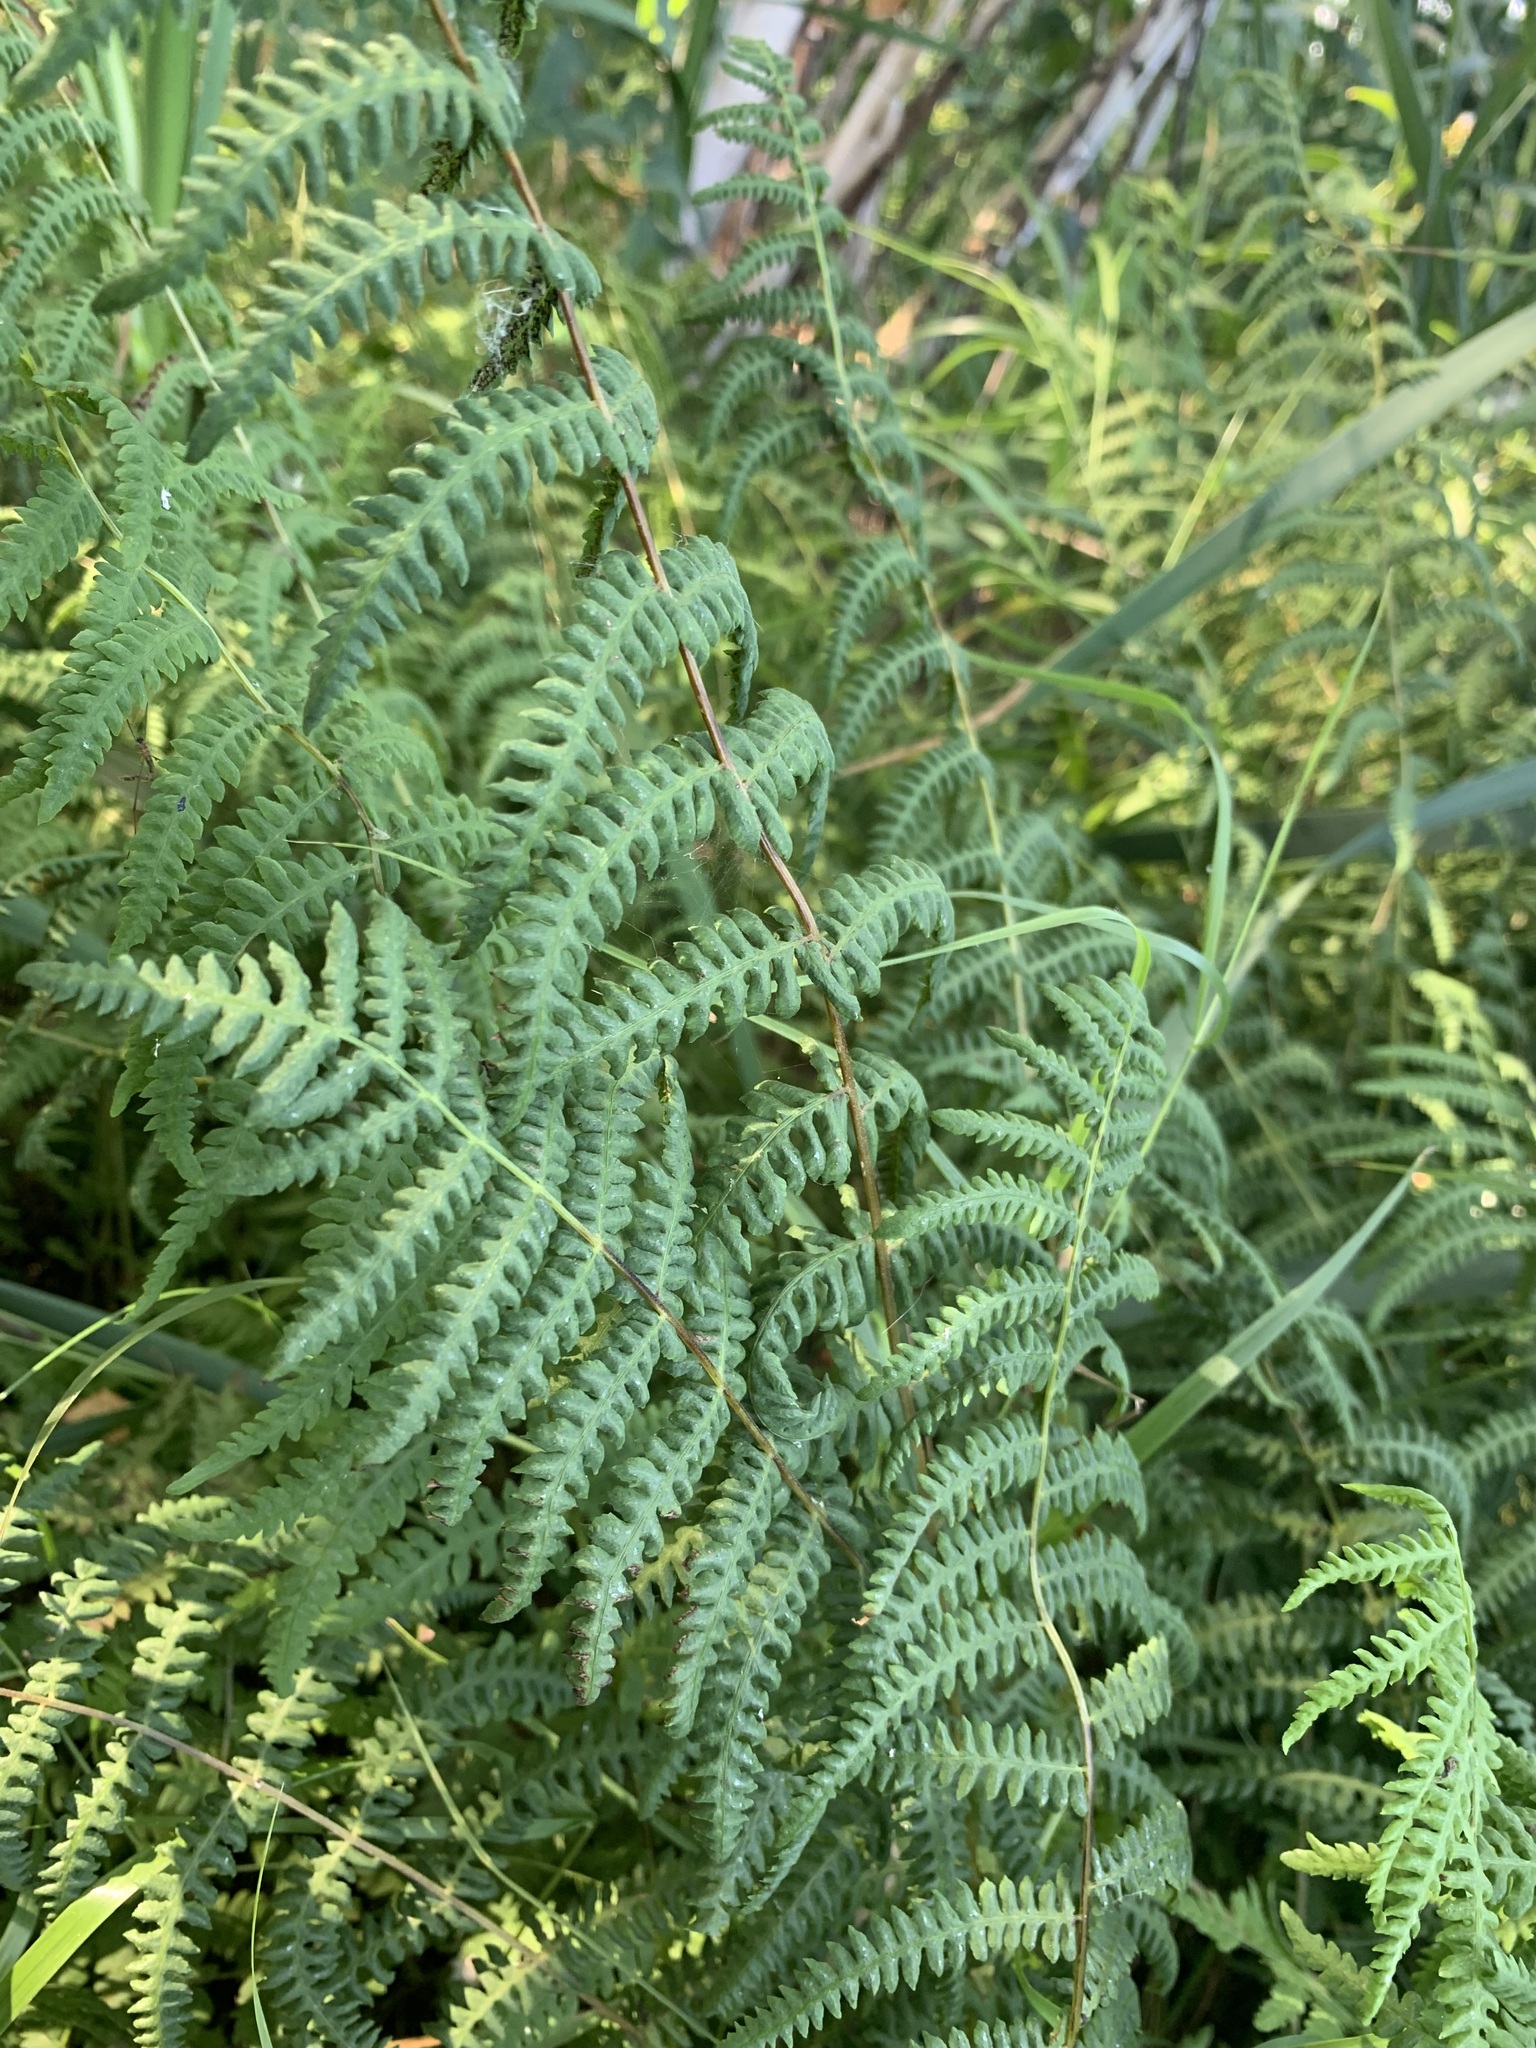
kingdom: Plantae
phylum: Tracheophyta
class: Polypodiopsida
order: Polypodiales
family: Thelypteridaceae
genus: Thelypteris
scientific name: Thelypteris palustris
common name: Marsh fern
